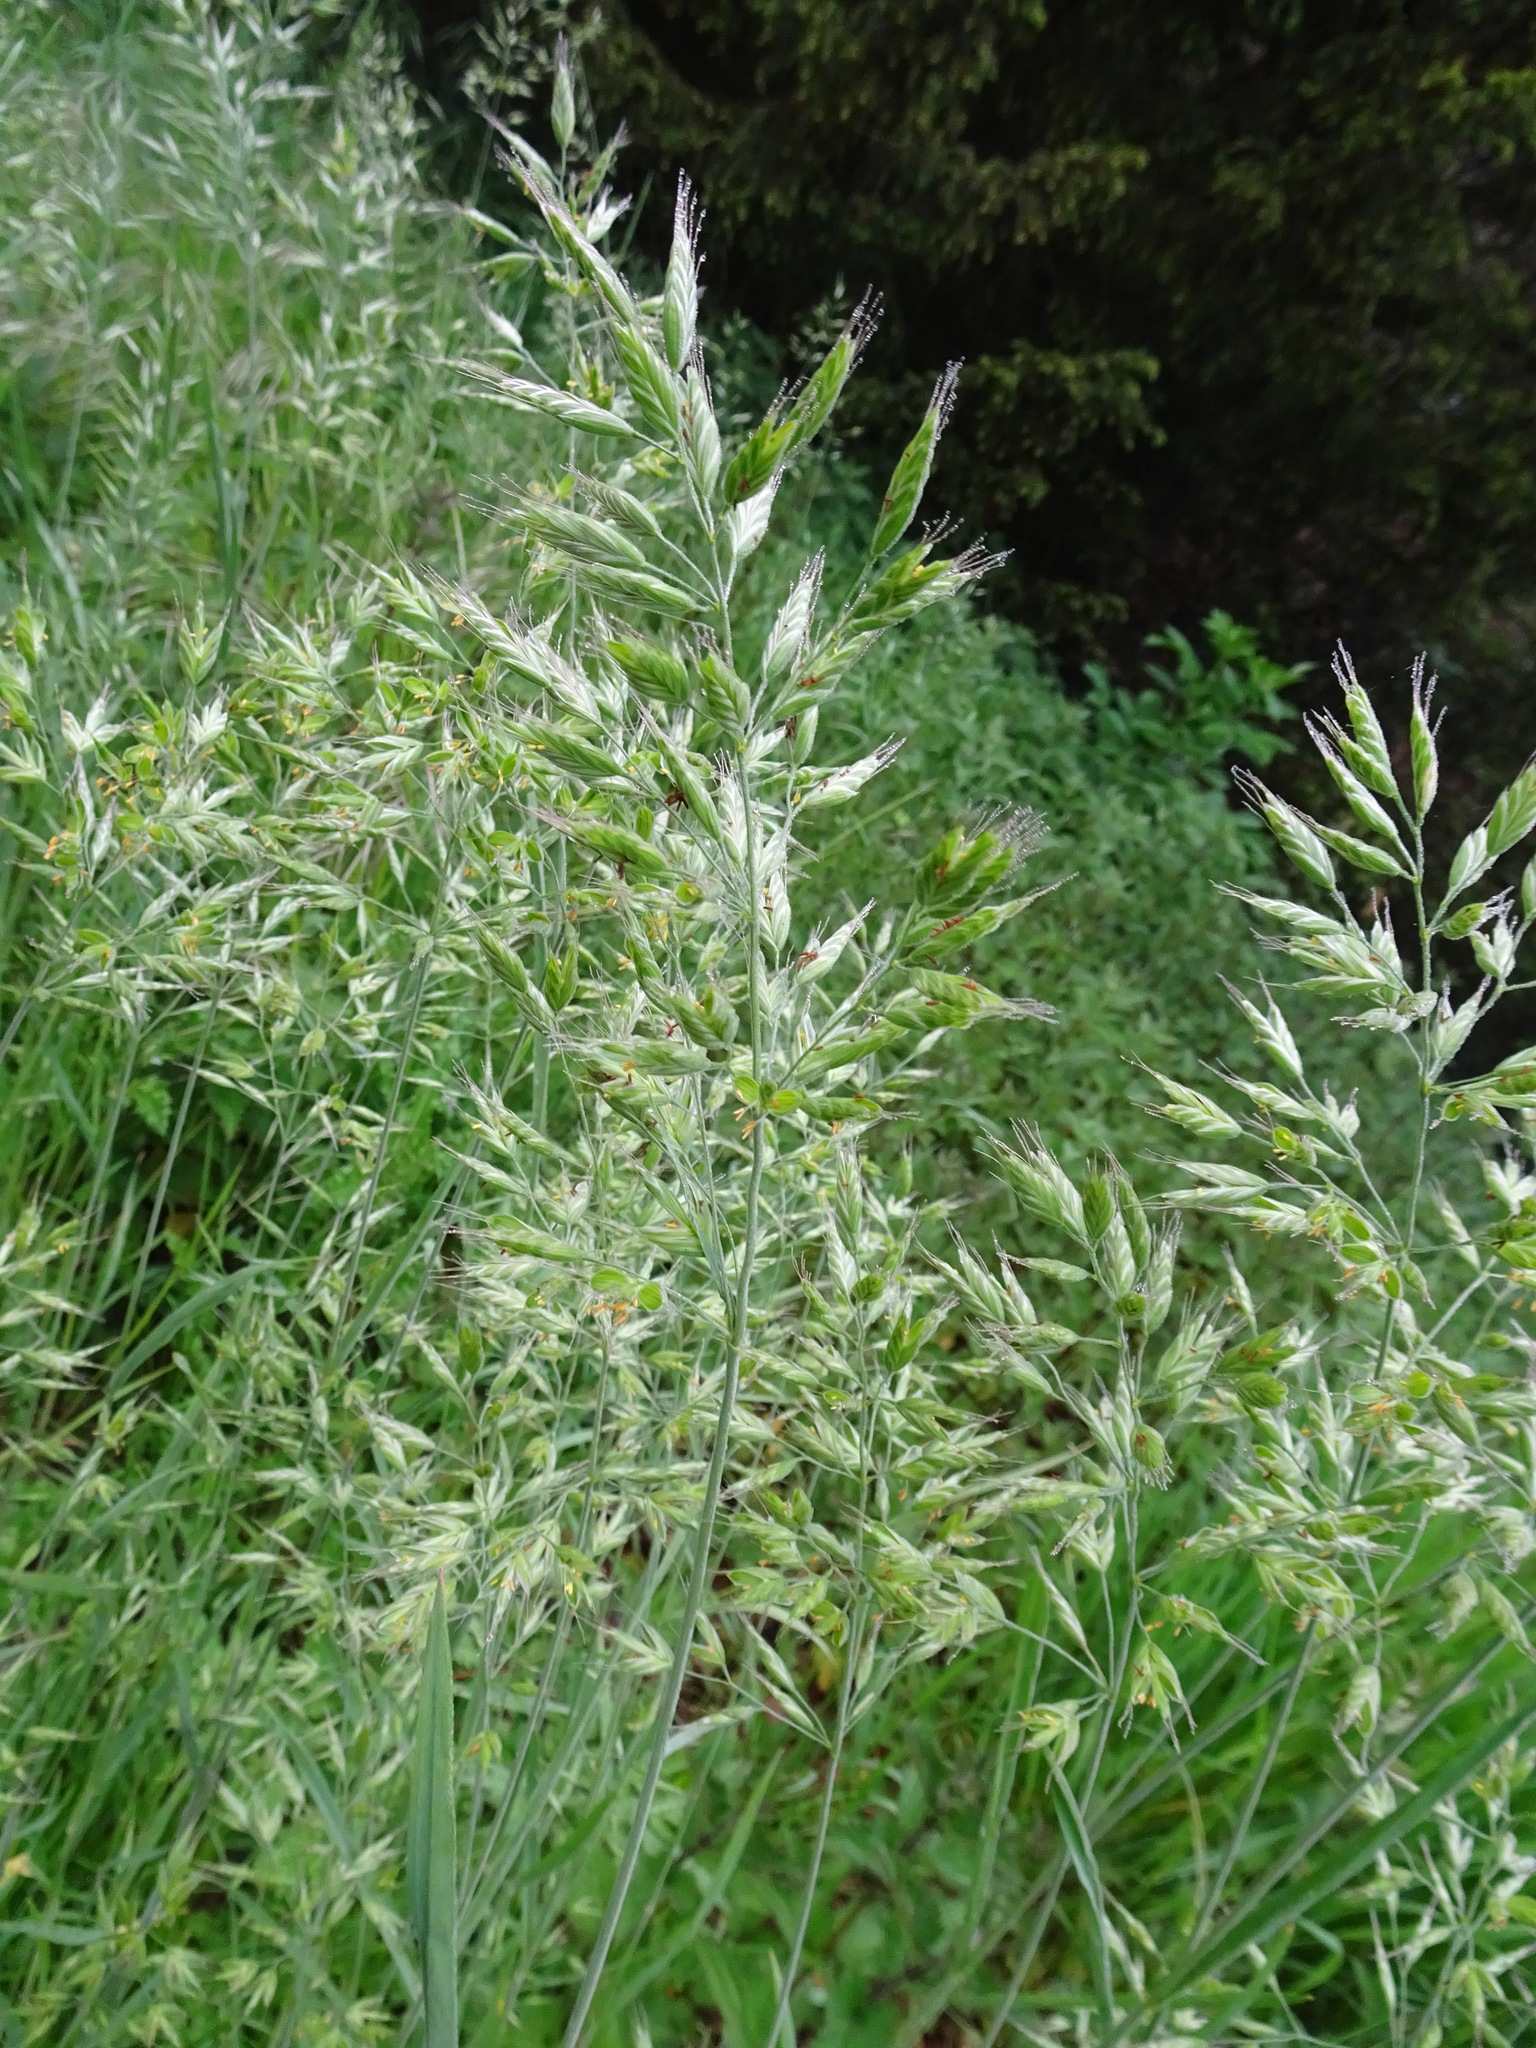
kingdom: Plantae
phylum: Tracheophyta
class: Liliopsida
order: Poales
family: Poaceae
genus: Bromus
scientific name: Bromus hordeaceus
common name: Soft brome
